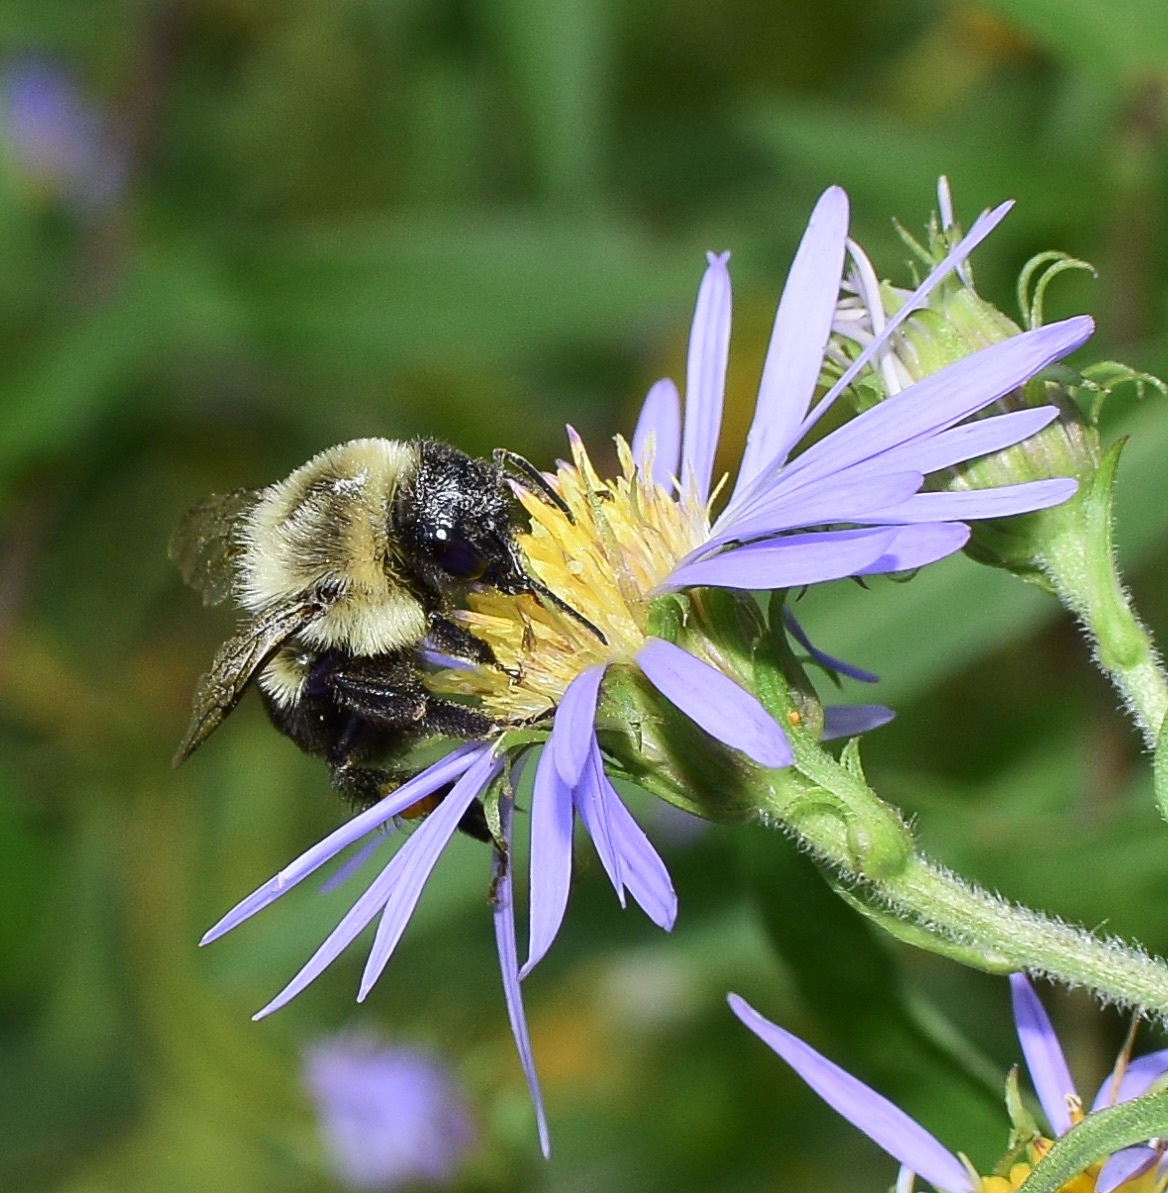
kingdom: Animalia
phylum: Arthropoda
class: Insecta
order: Hymenoptera
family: Apidae
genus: Bombus
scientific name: Bombus impatiens
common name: Common eastern bumble bee
